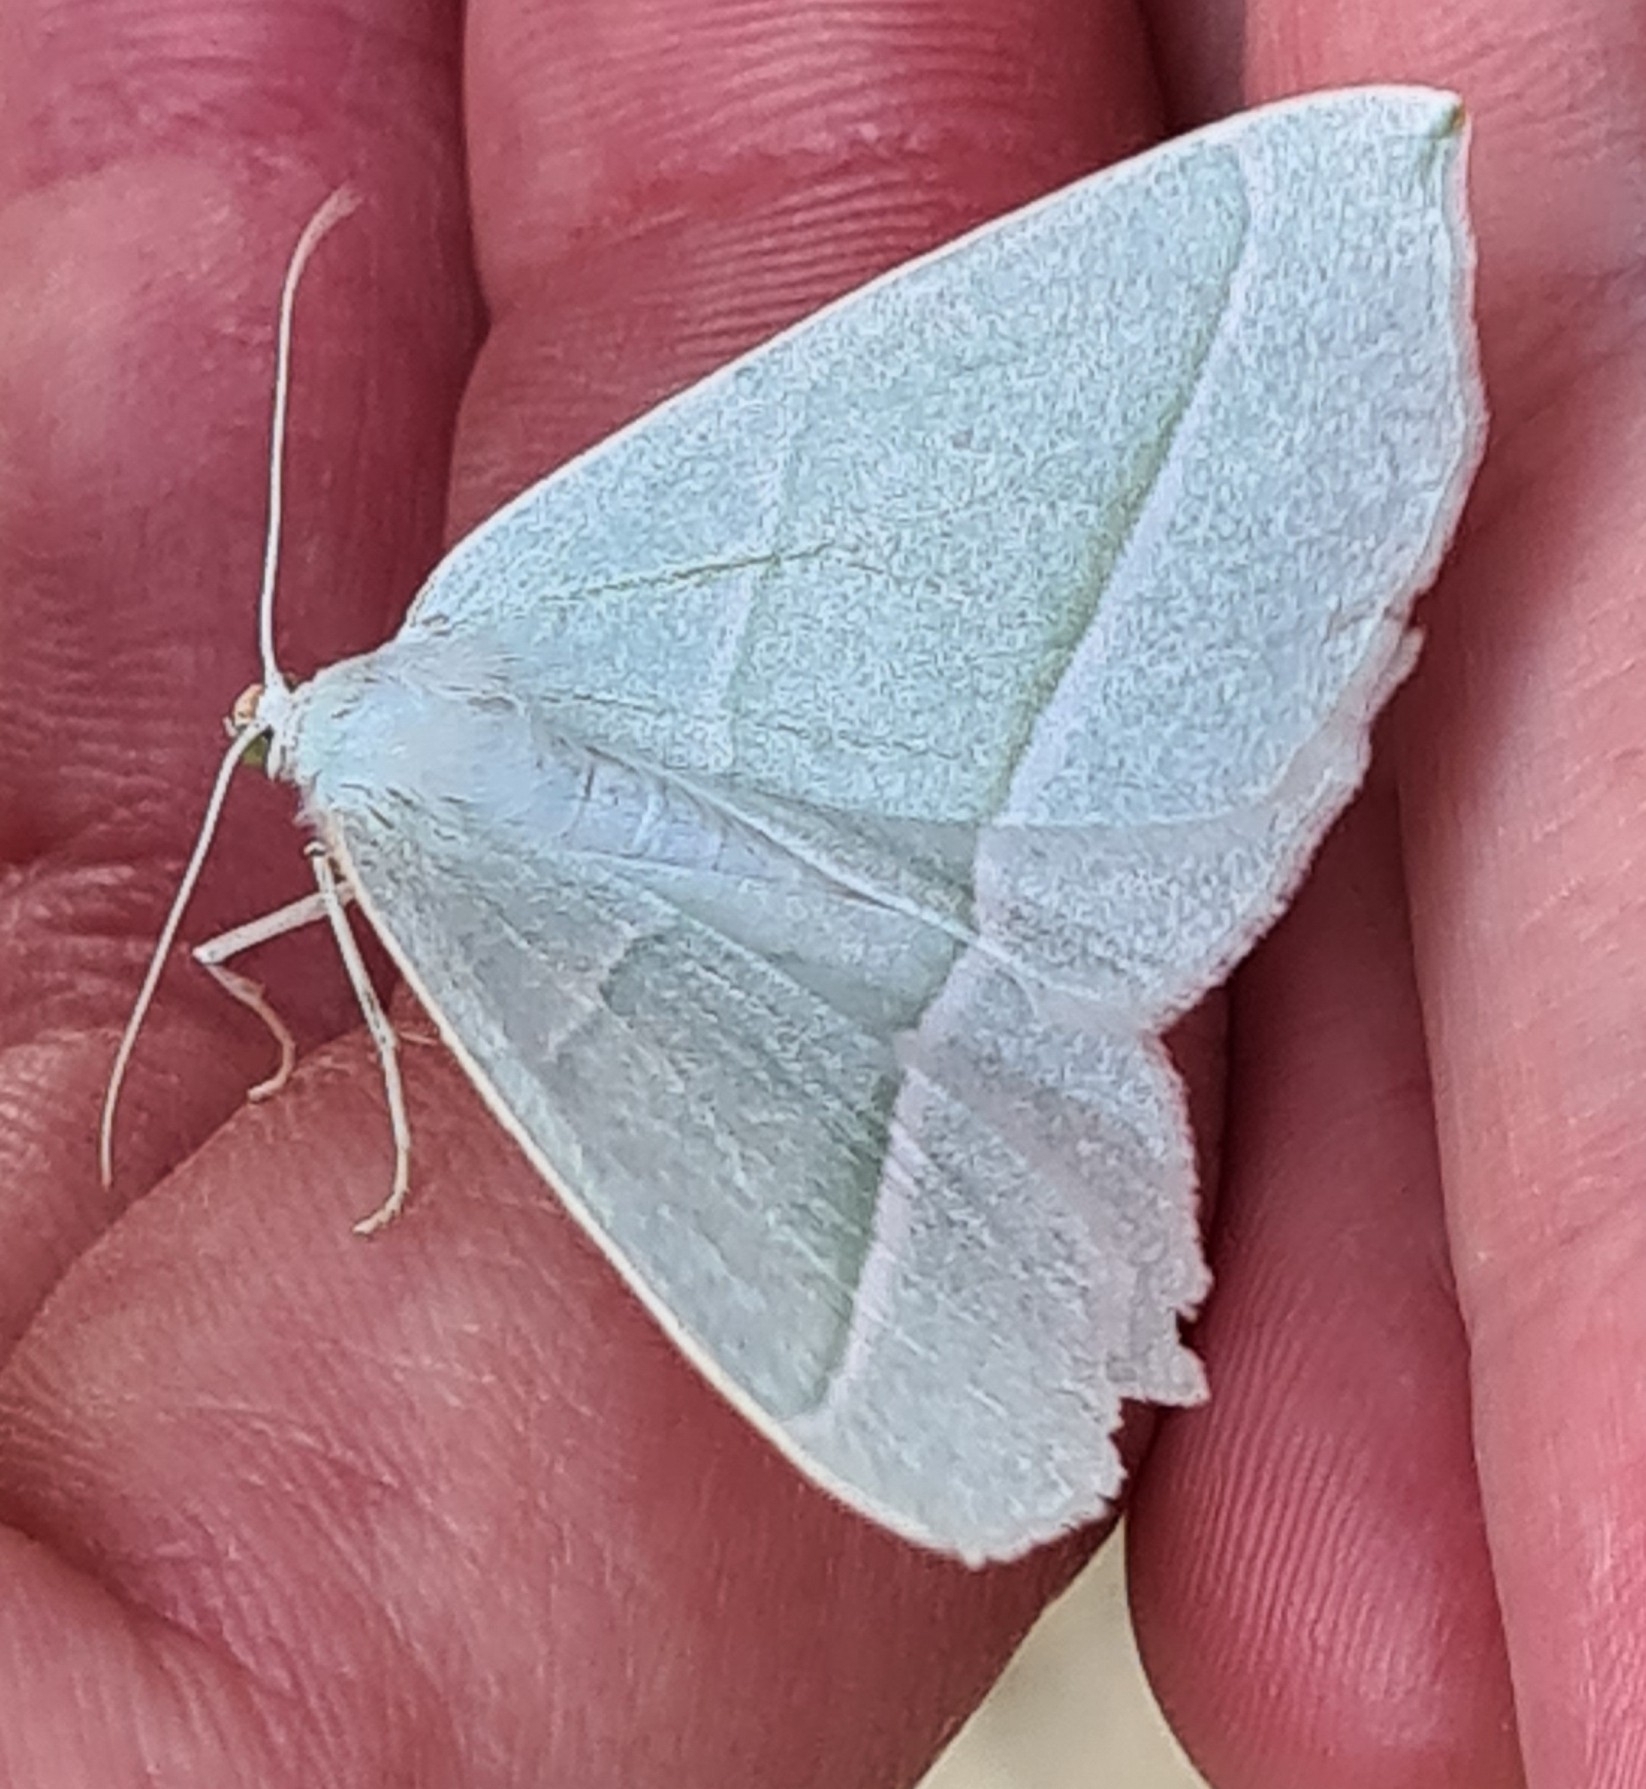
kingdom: Animalia
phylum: Arthropoda
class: Insecta
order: Lepidoptera
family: Geometridae
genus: Campaea
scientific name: Campaea margaritaria
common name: Light emerald
